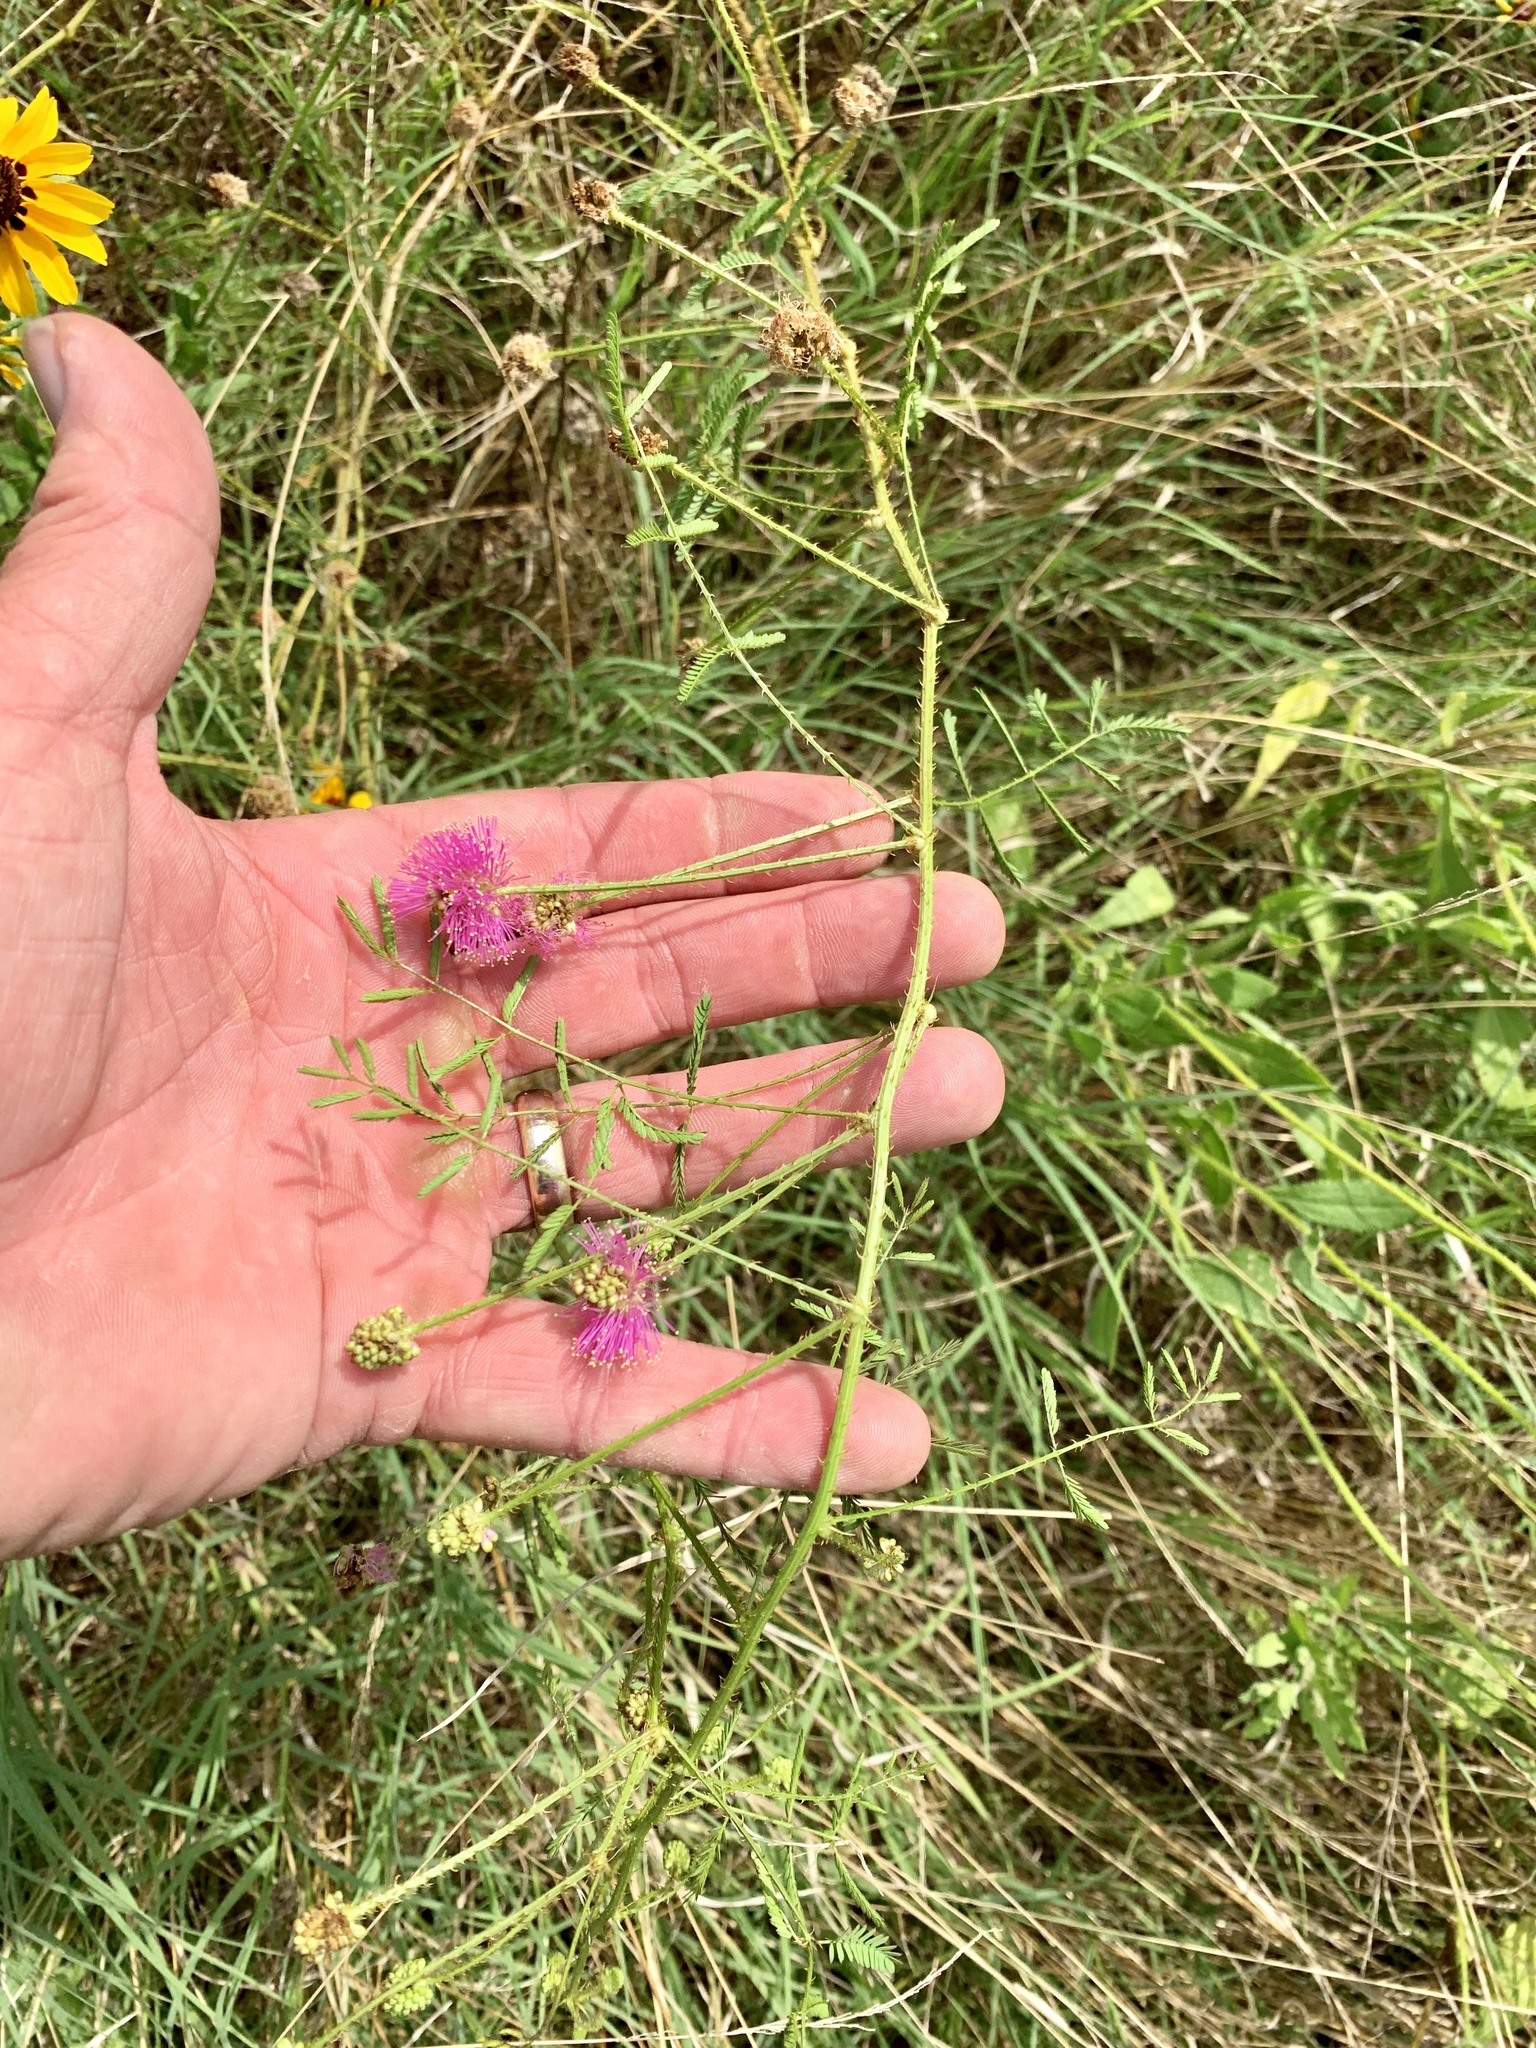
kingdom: Plantae
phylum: Tracheophyta
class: Magnoliopsida
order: Fabales
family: Fabaceae
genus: Mimosa
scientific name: Mimosa quadrivalvis
